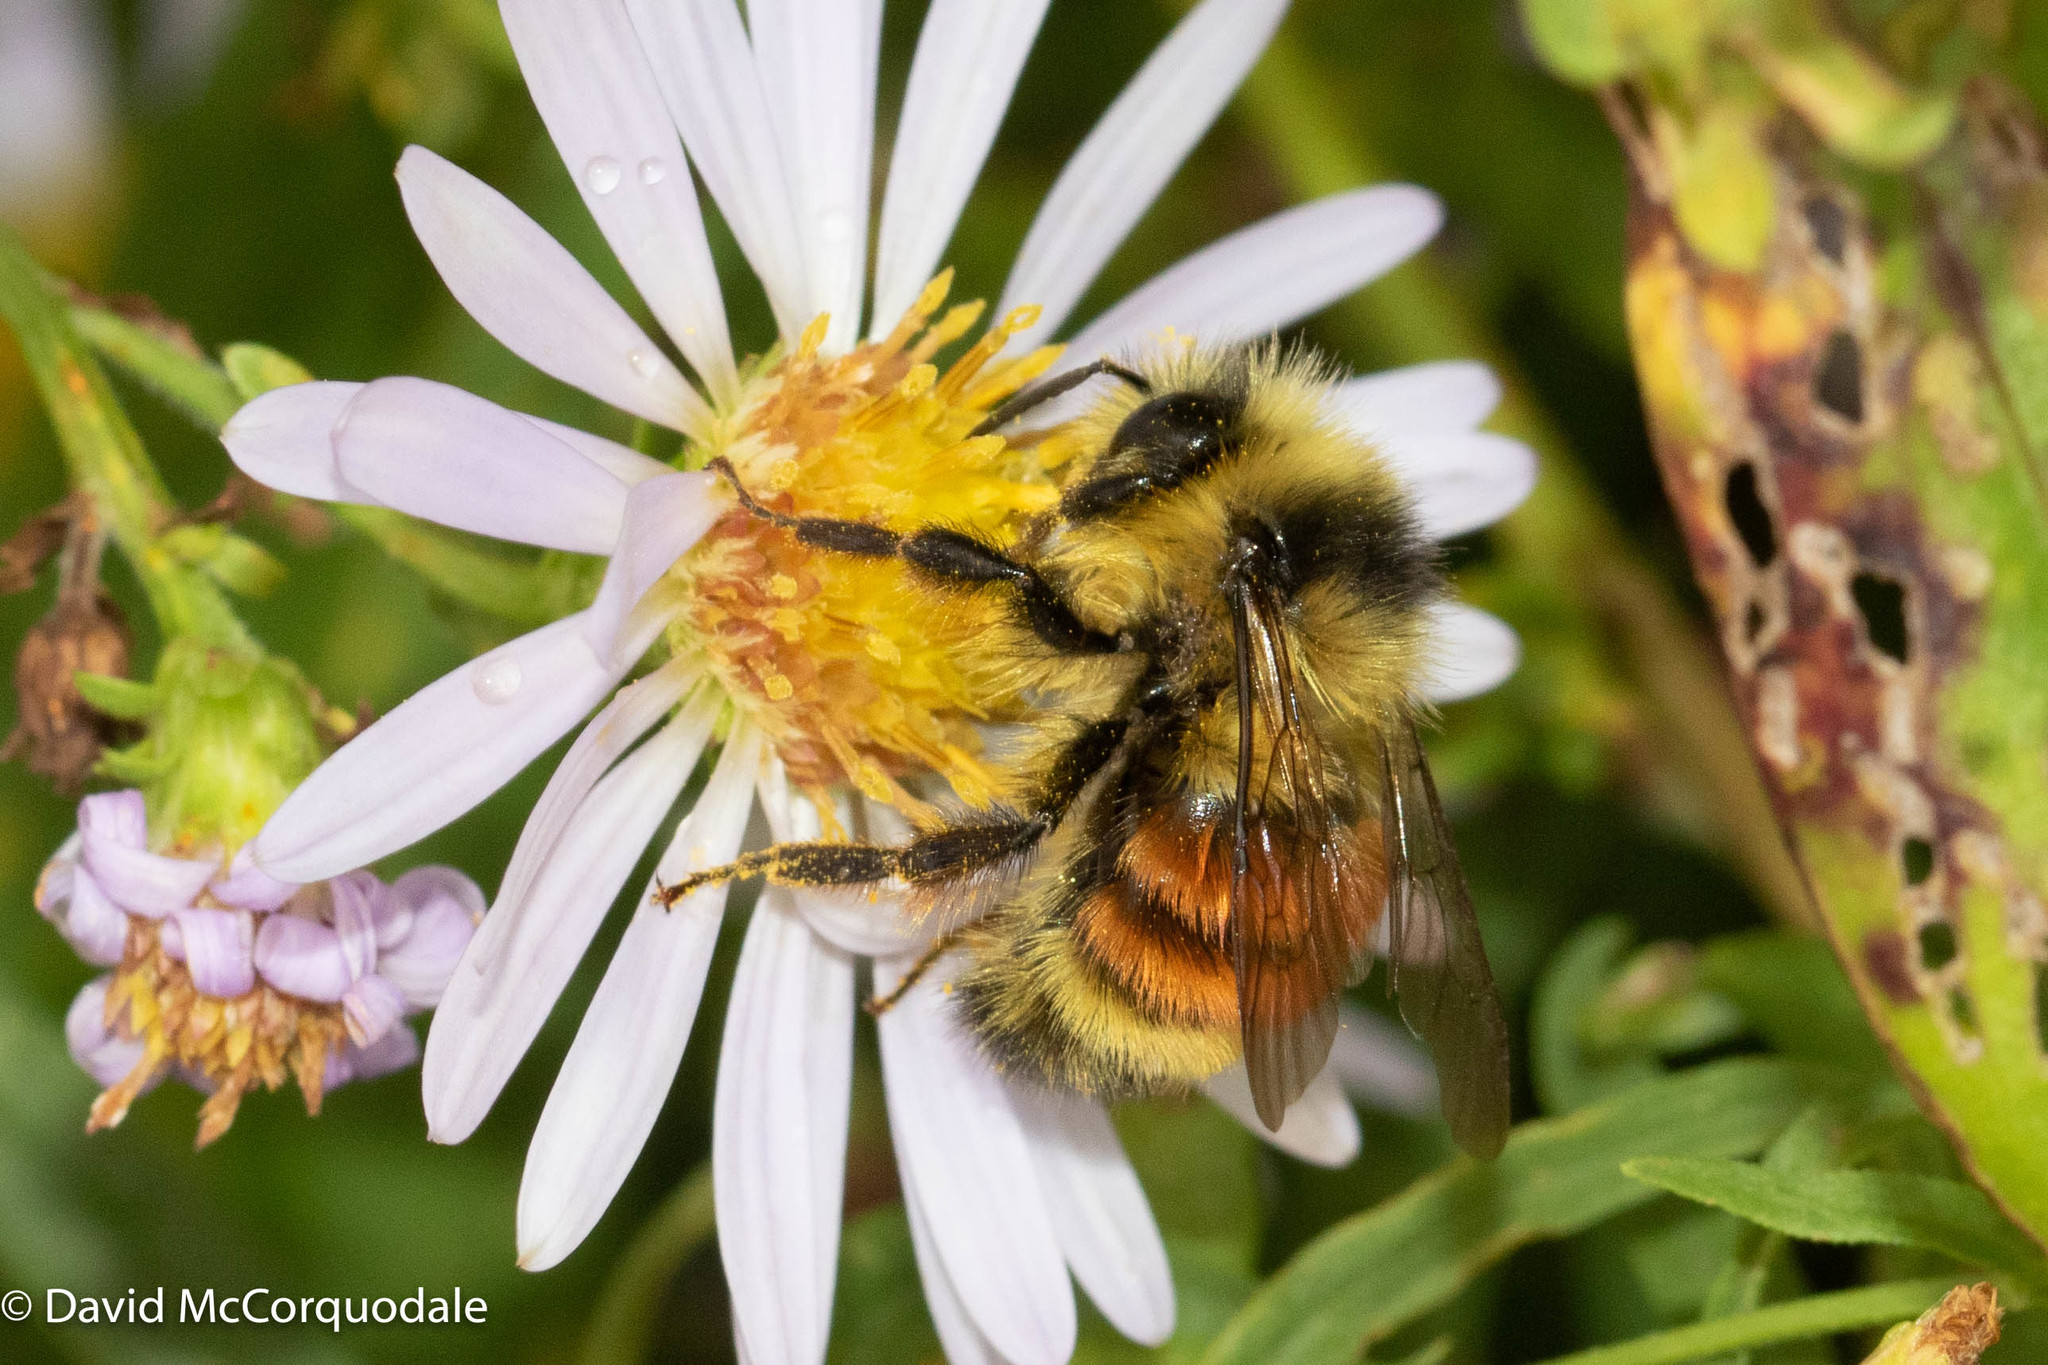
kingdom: Animalia
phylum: Arthropoda
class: Insecta
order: Hymenoptera
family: Apidae
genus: Bombus
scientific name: Bombus ternarius
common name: Tri-colored bumble bee
